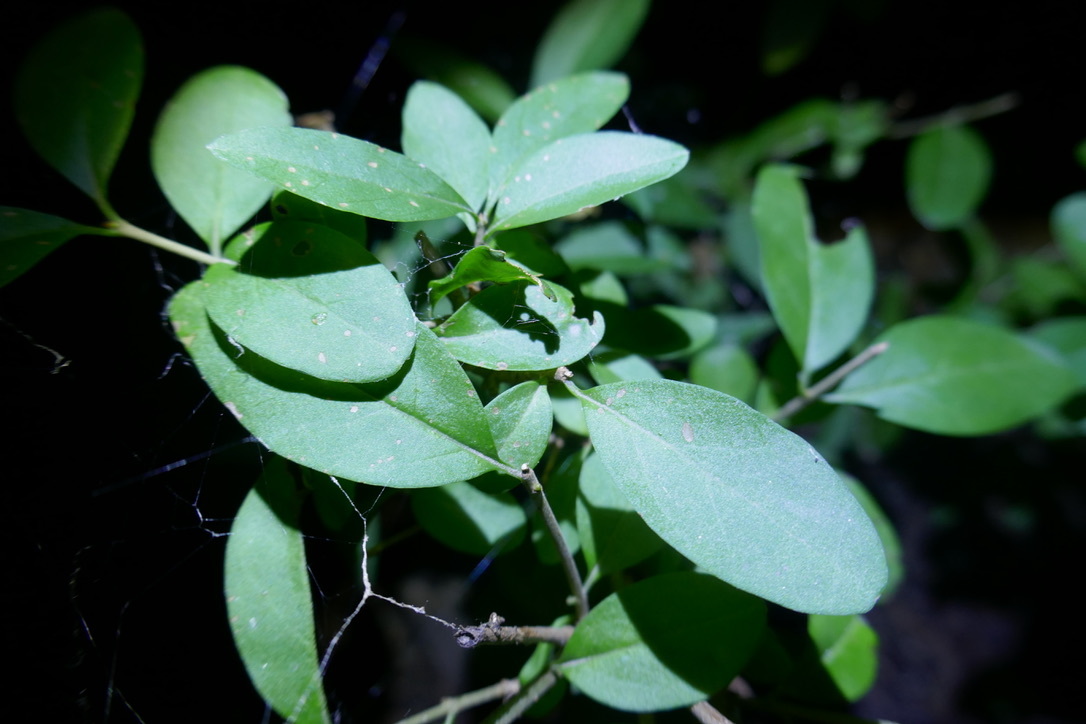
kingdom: Plantae
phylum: Tracheophyta
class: Magnoliopsida
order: Lamiales
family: Oleaceae
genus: Ligustrum
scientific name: Ligustrum vulgare
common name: Wild privet
